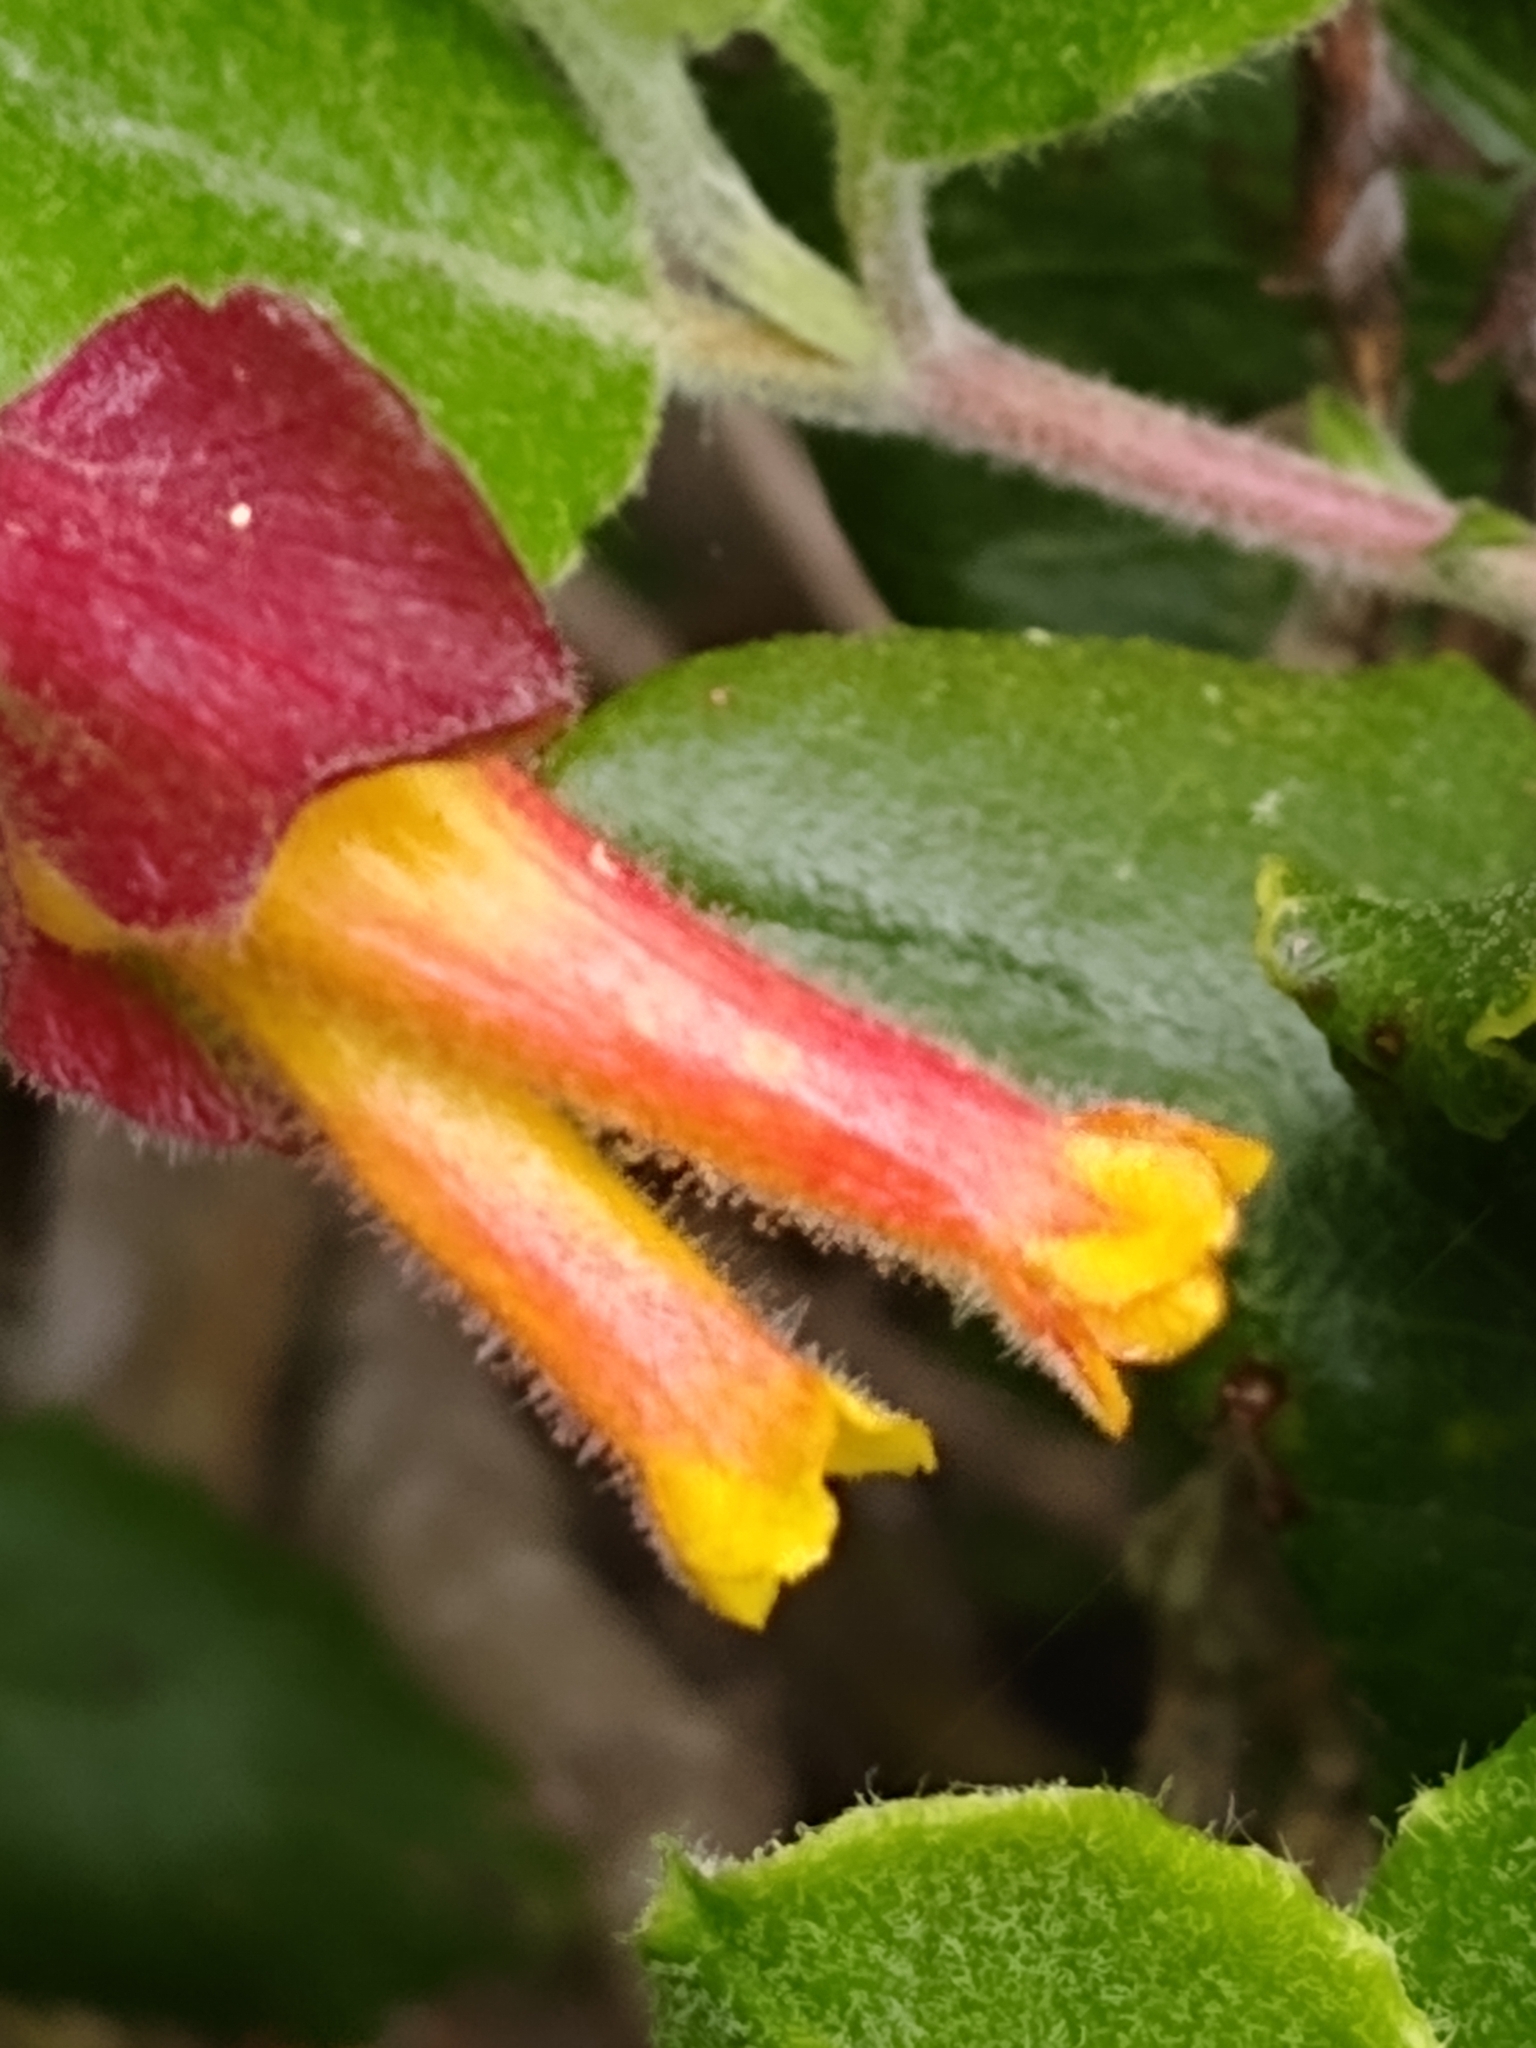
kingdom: Plantae
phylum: Tracheophyta
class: Magnoliopsida
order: Dipsacales
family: Caprifoliaceae
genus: Lonicera
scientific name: Lonicera involucrata
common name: Californian honeysuckle
